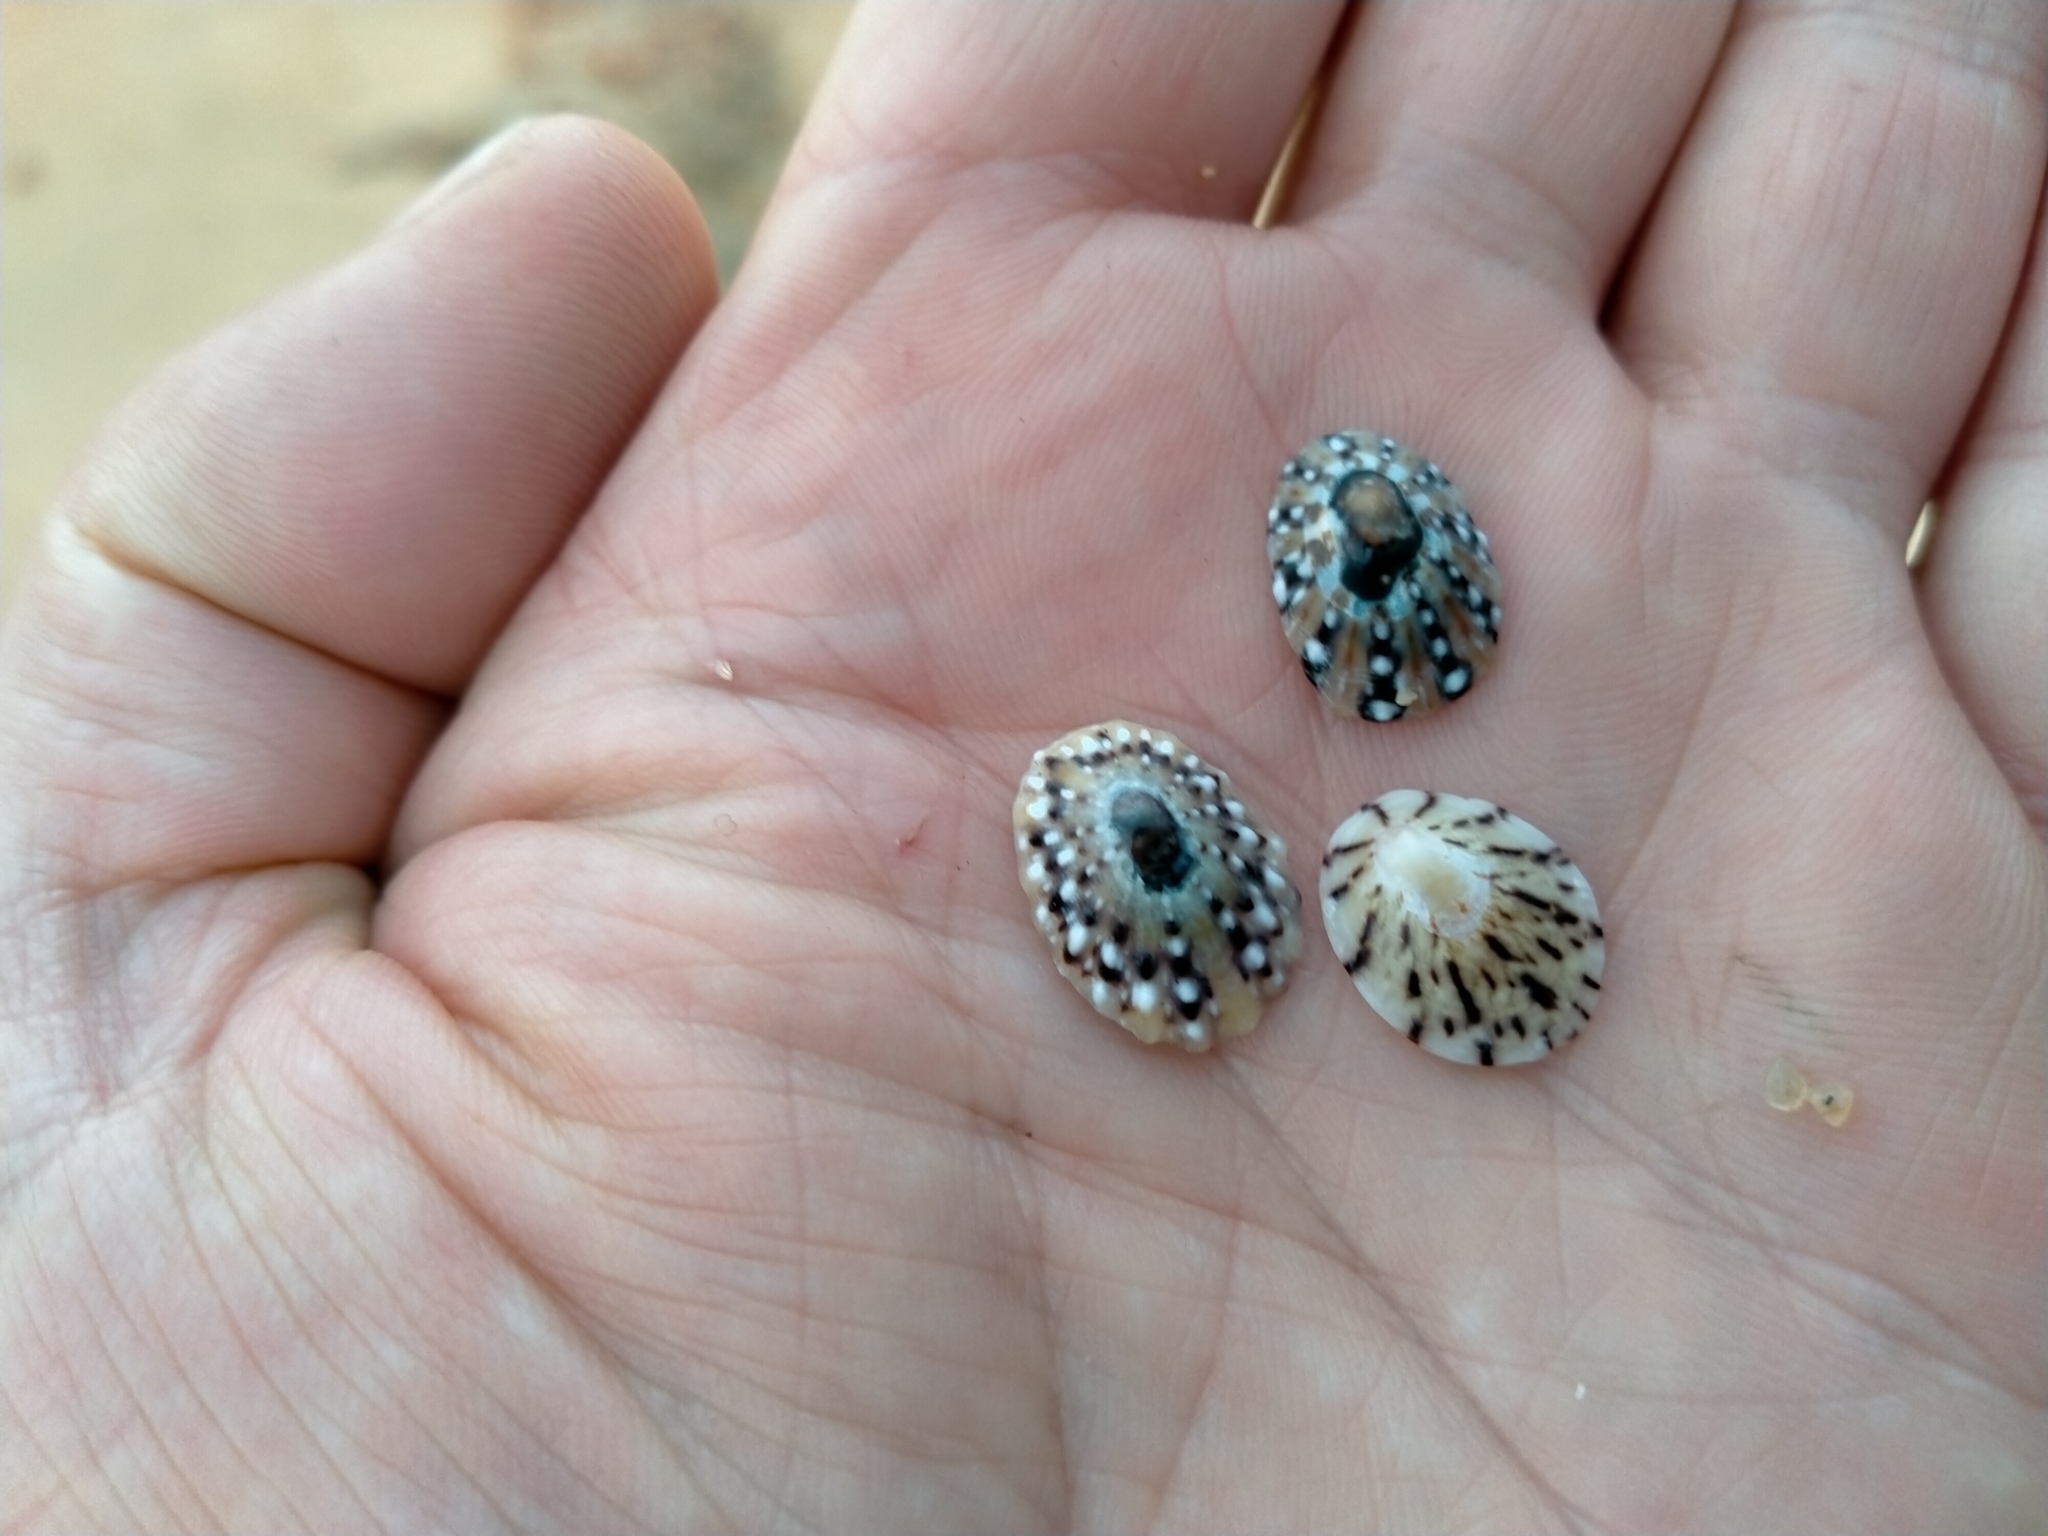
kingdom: Animalia
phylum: Mollusca
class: Gastropoda
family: Nacellidae
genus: Cellana
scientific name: Cellana radians
